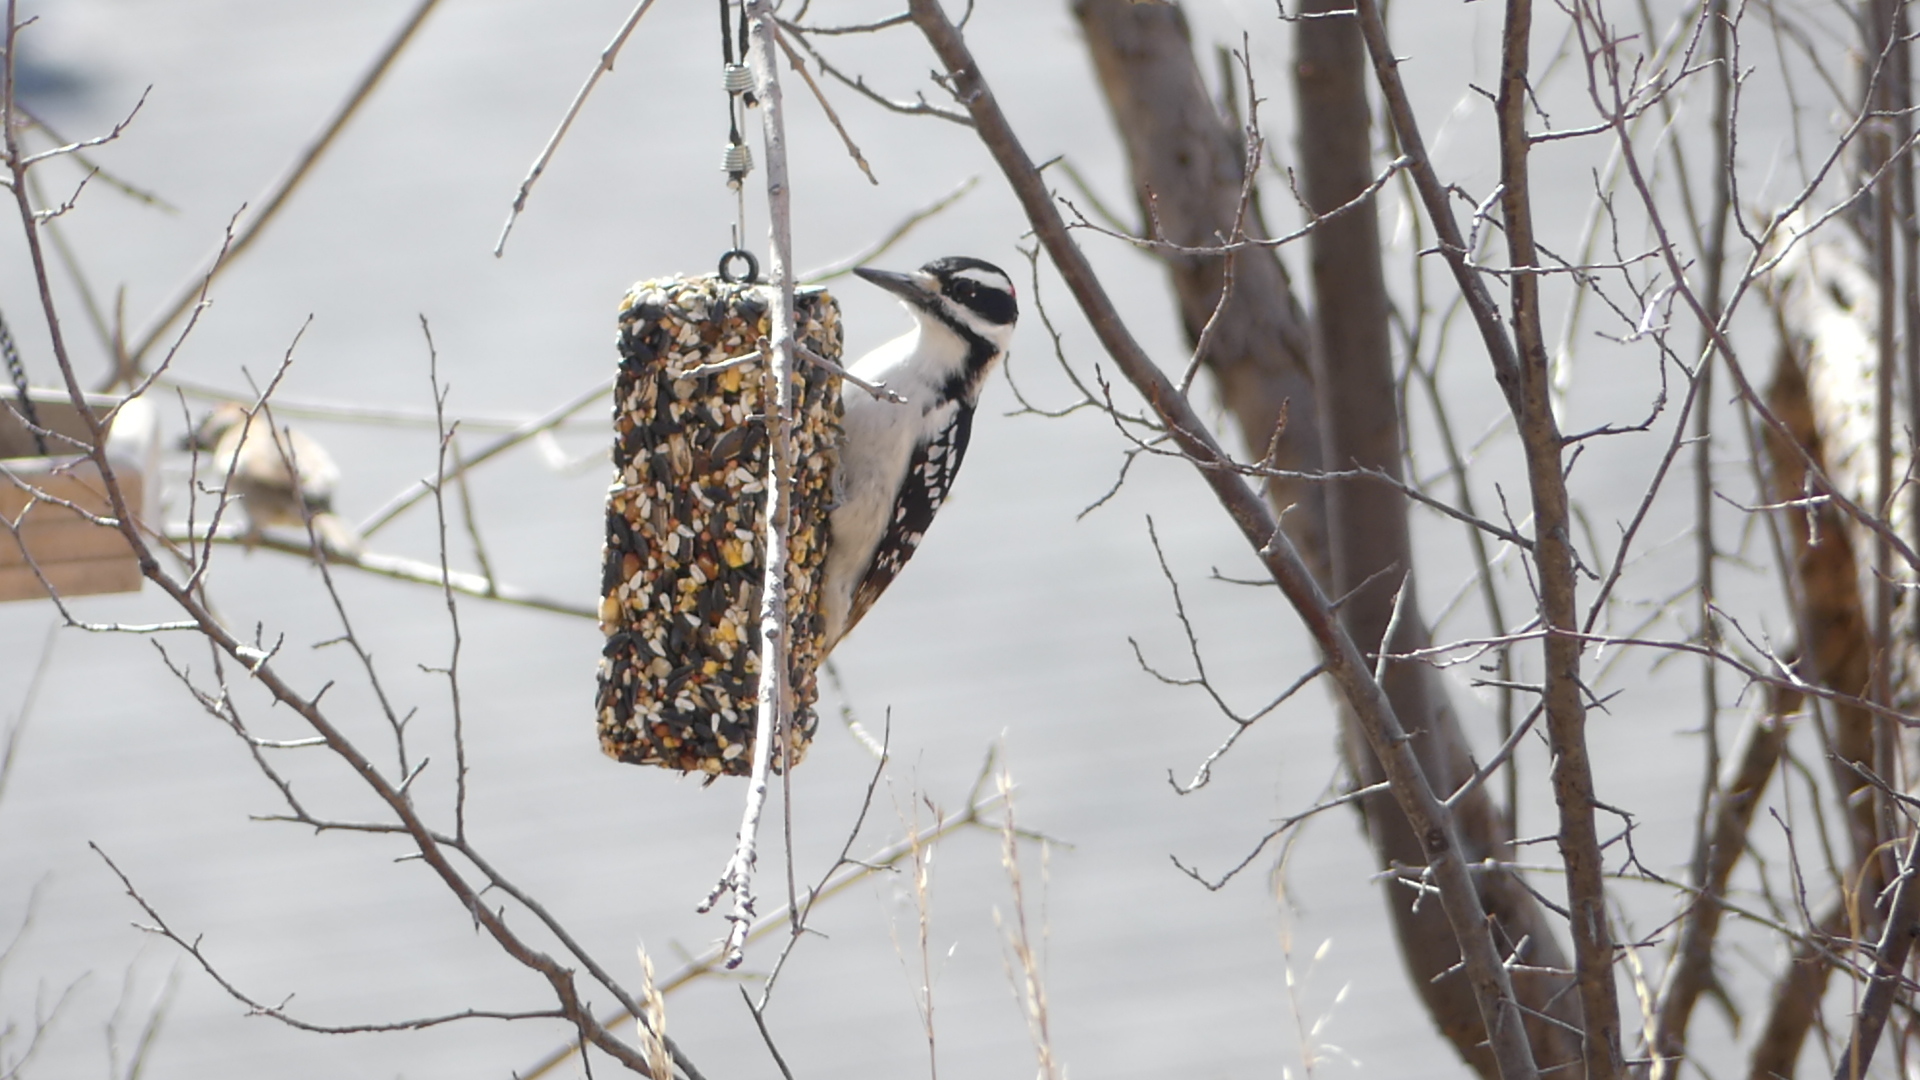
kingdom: Animalia
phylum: Chordata
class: Aves
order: Piciformes
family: Picidae
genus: Leuconotopicus
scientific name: Leuconotopicus villosus
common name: Hairy woodpecker
